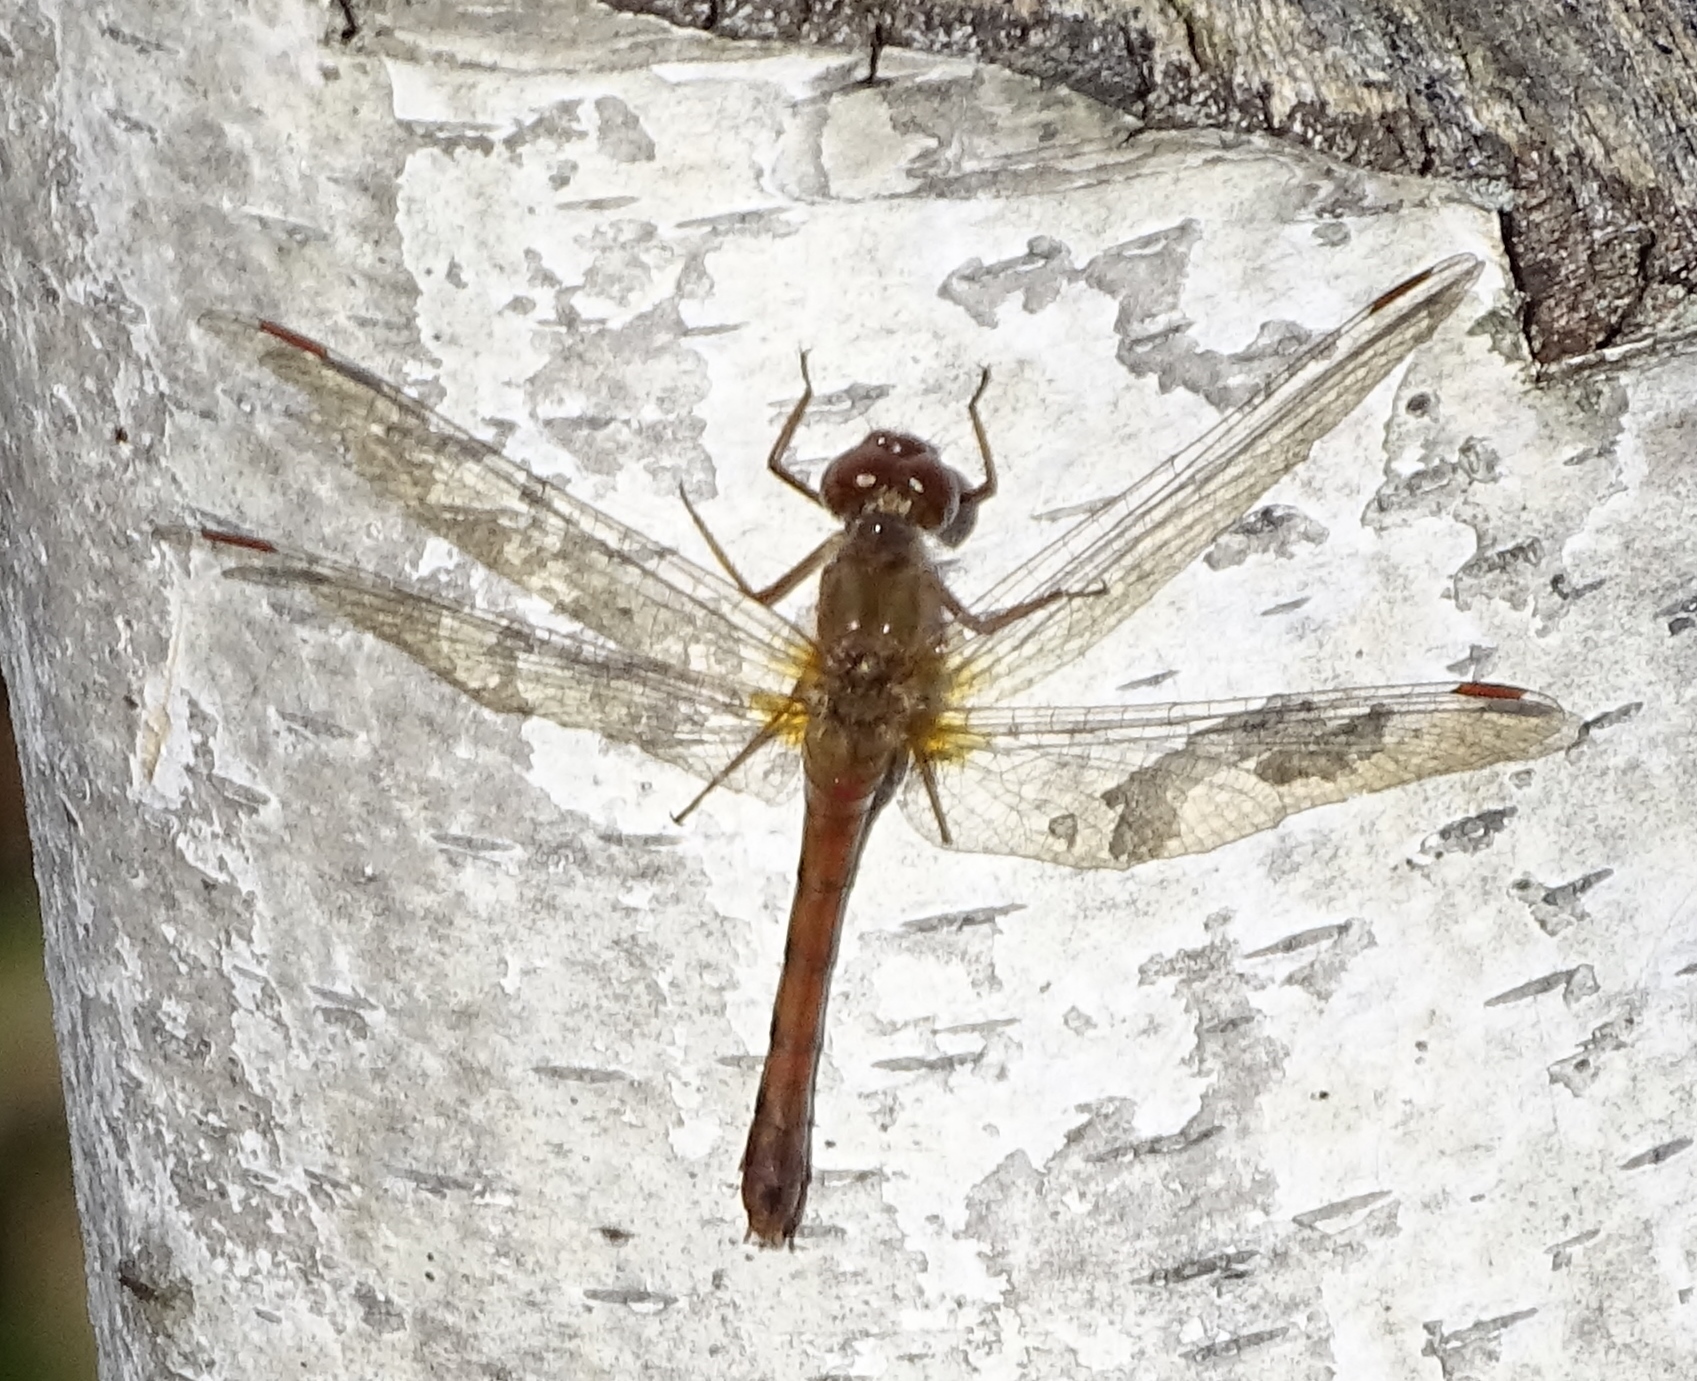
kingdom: Animalia
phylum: Arthropoda
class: Insecta
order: Odonata
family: Libellulidae
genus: Sympetrum
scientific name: Sympetrum vicinum
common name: Autumn meadowhawk
